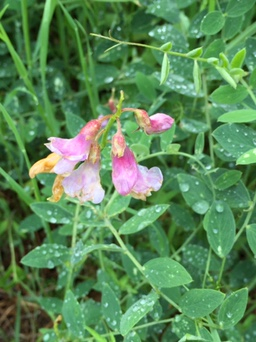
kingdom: Plantae
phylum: Tracheophyta
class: Magnoliopsida
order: Fabales
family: Fabaceae
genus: Lathyrus
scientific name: Lathyrus vestitus
